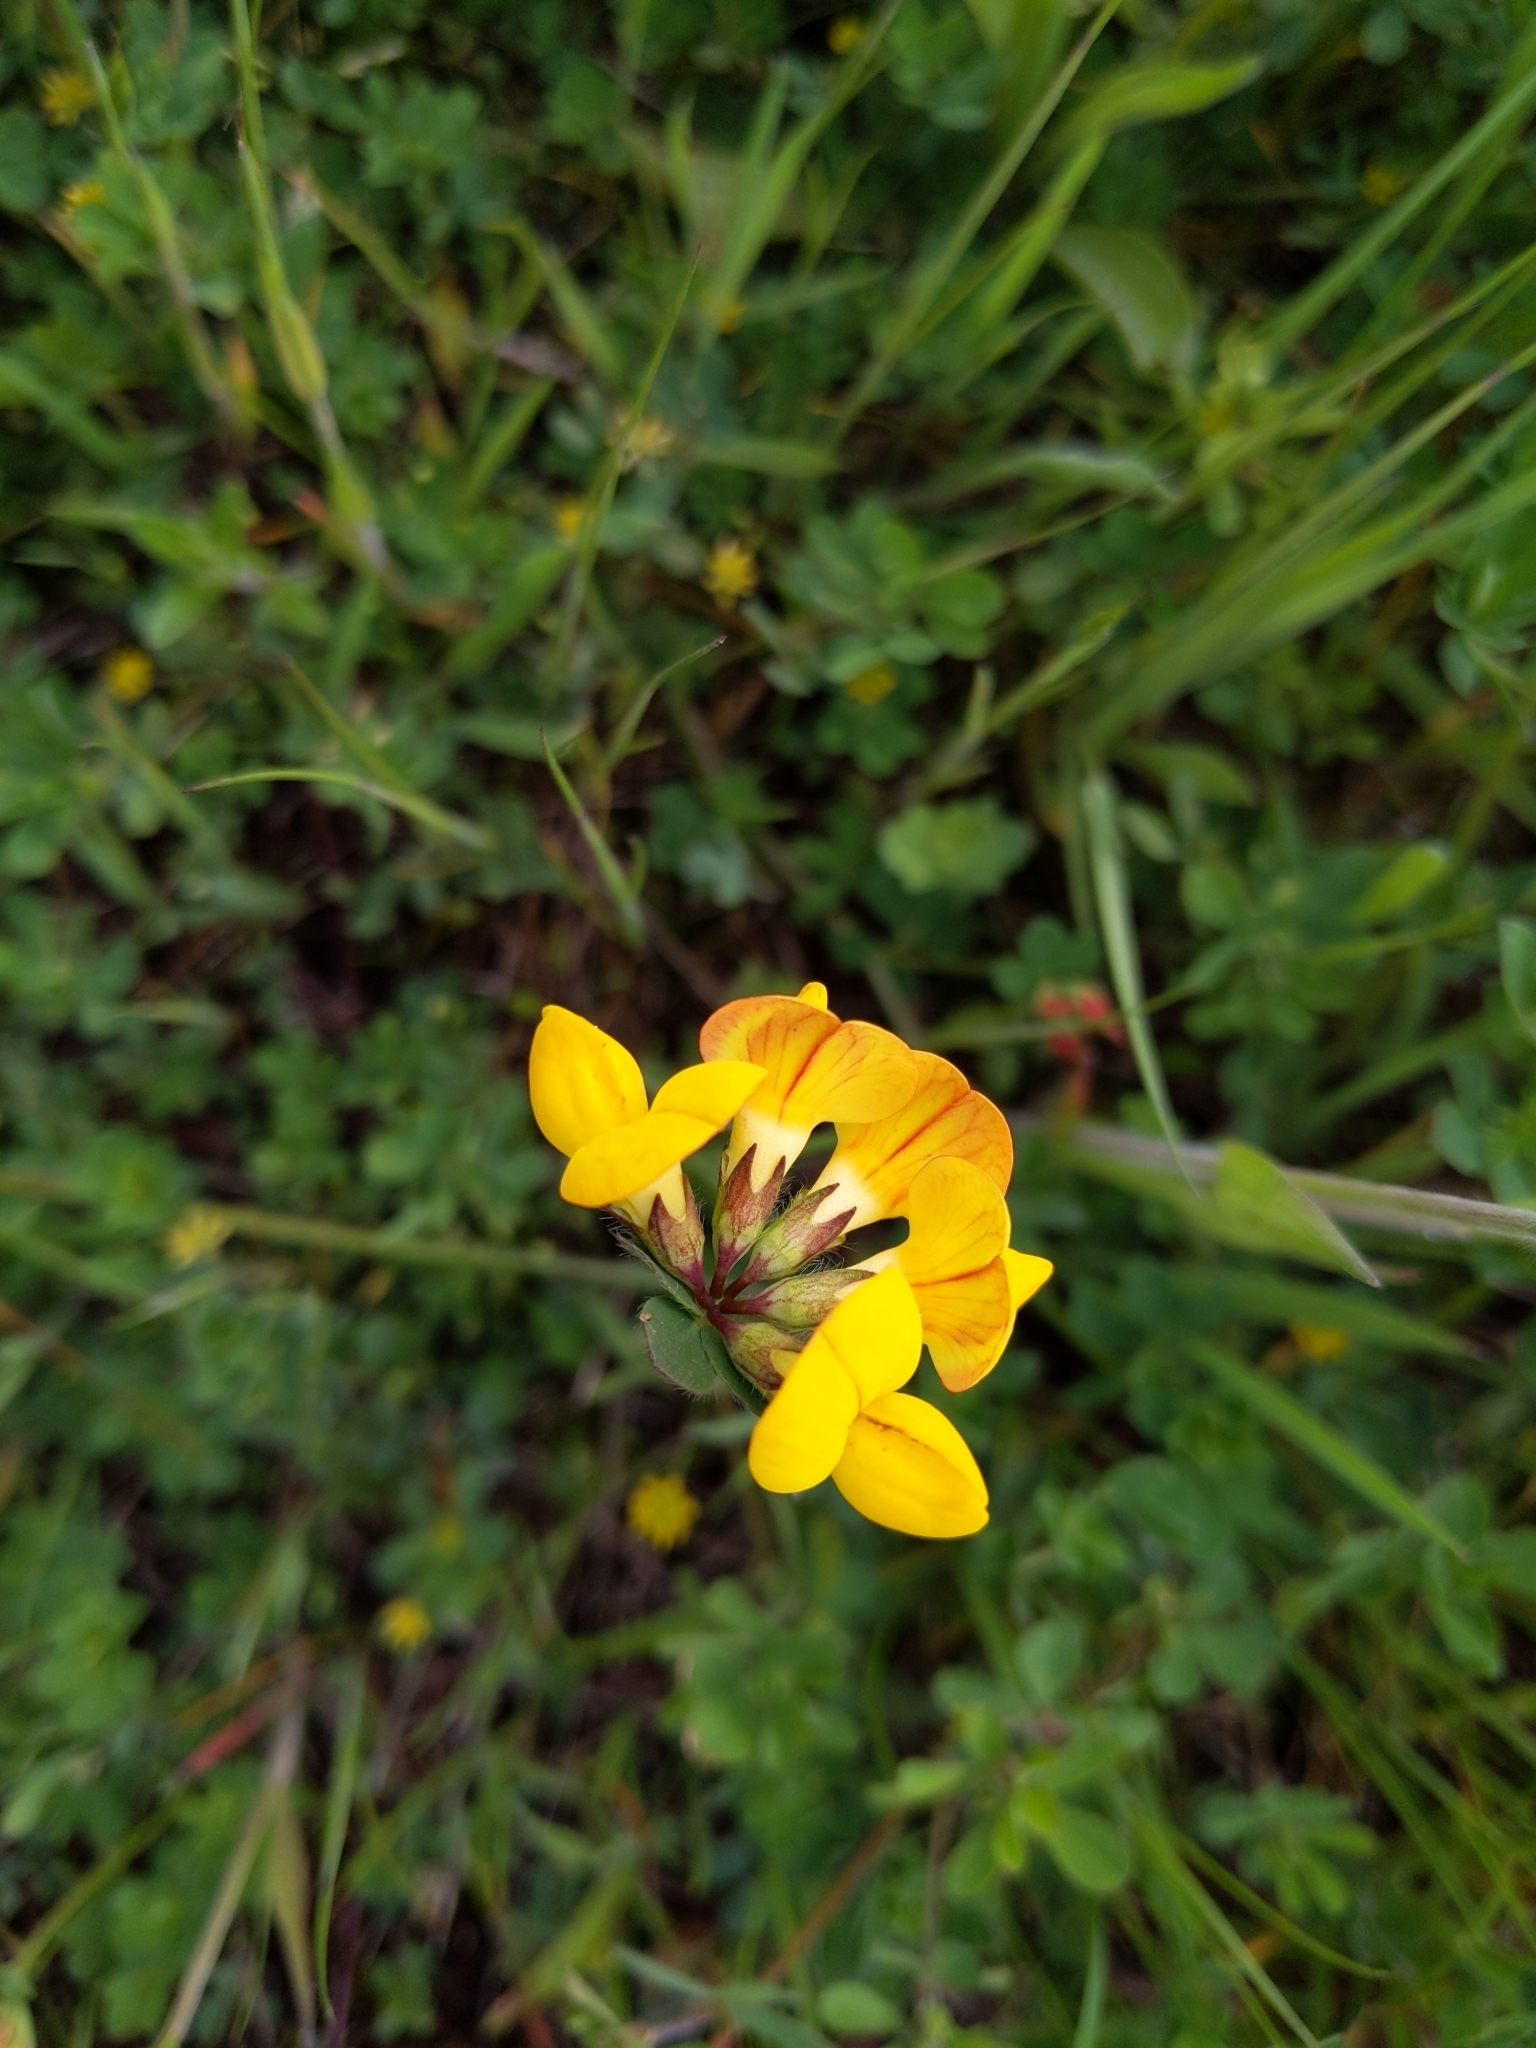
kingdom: Plantae
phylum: Tracheophyta
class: Magnoliopsida
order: Fabales
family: Fabaceae
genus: Lotus
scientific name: Lotus corniculatus
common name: Common bird's-foot-trefoil
